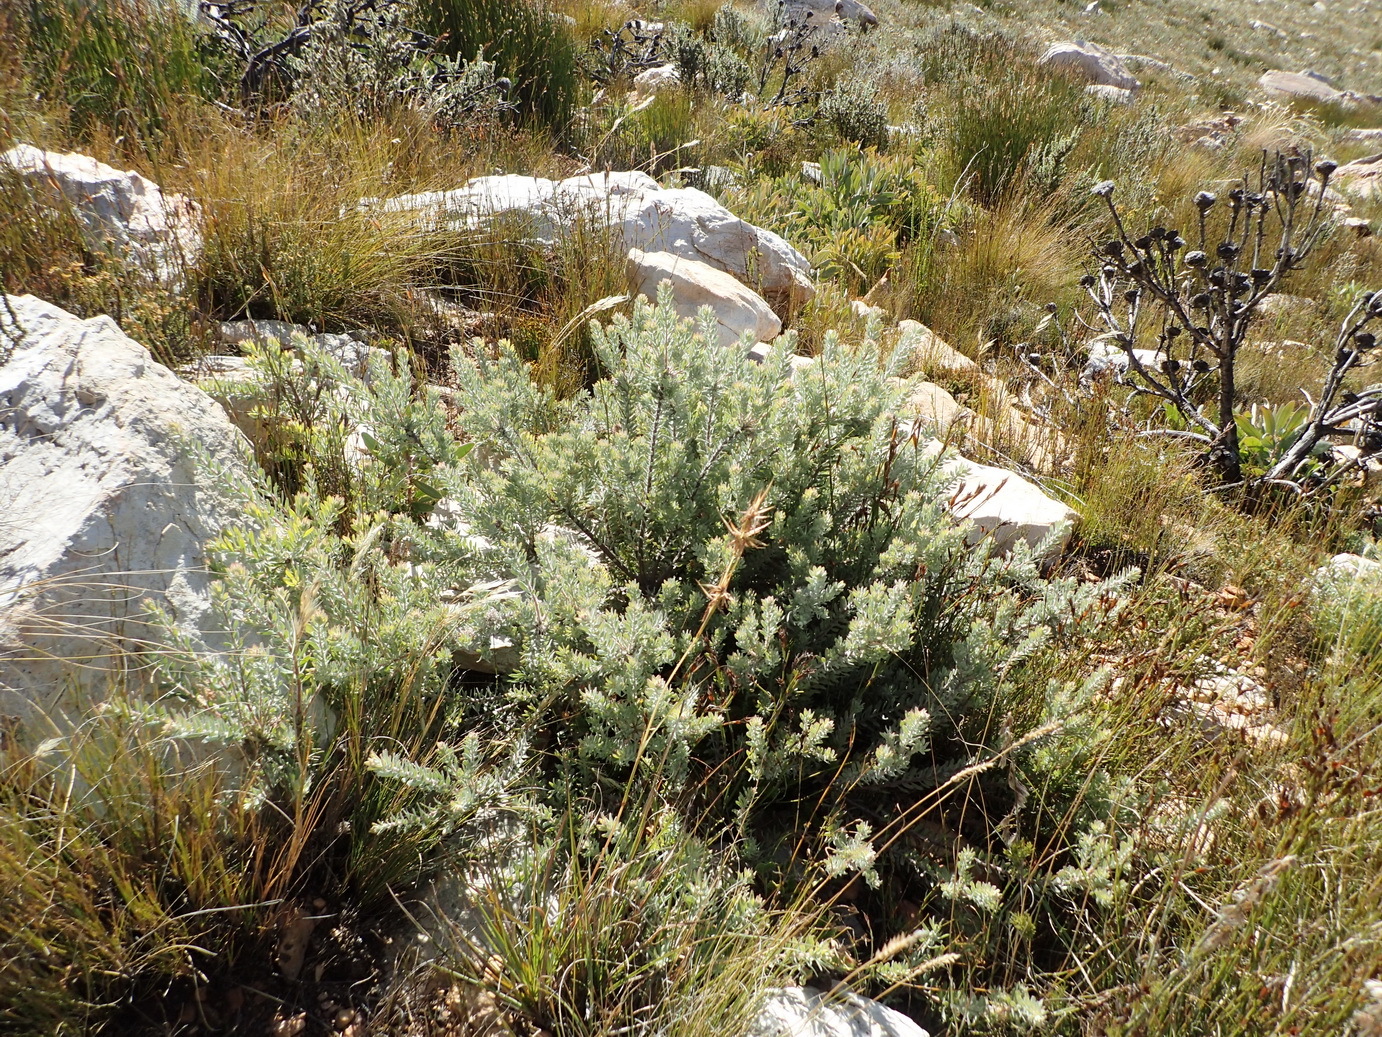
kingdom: Plantae
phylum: Tracheophyta
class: Magnoliopsida
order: Proteales
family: Proteaceae
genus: Leucospermum
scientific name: Leucospermum wittebergense
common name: Swartberg pincushion
